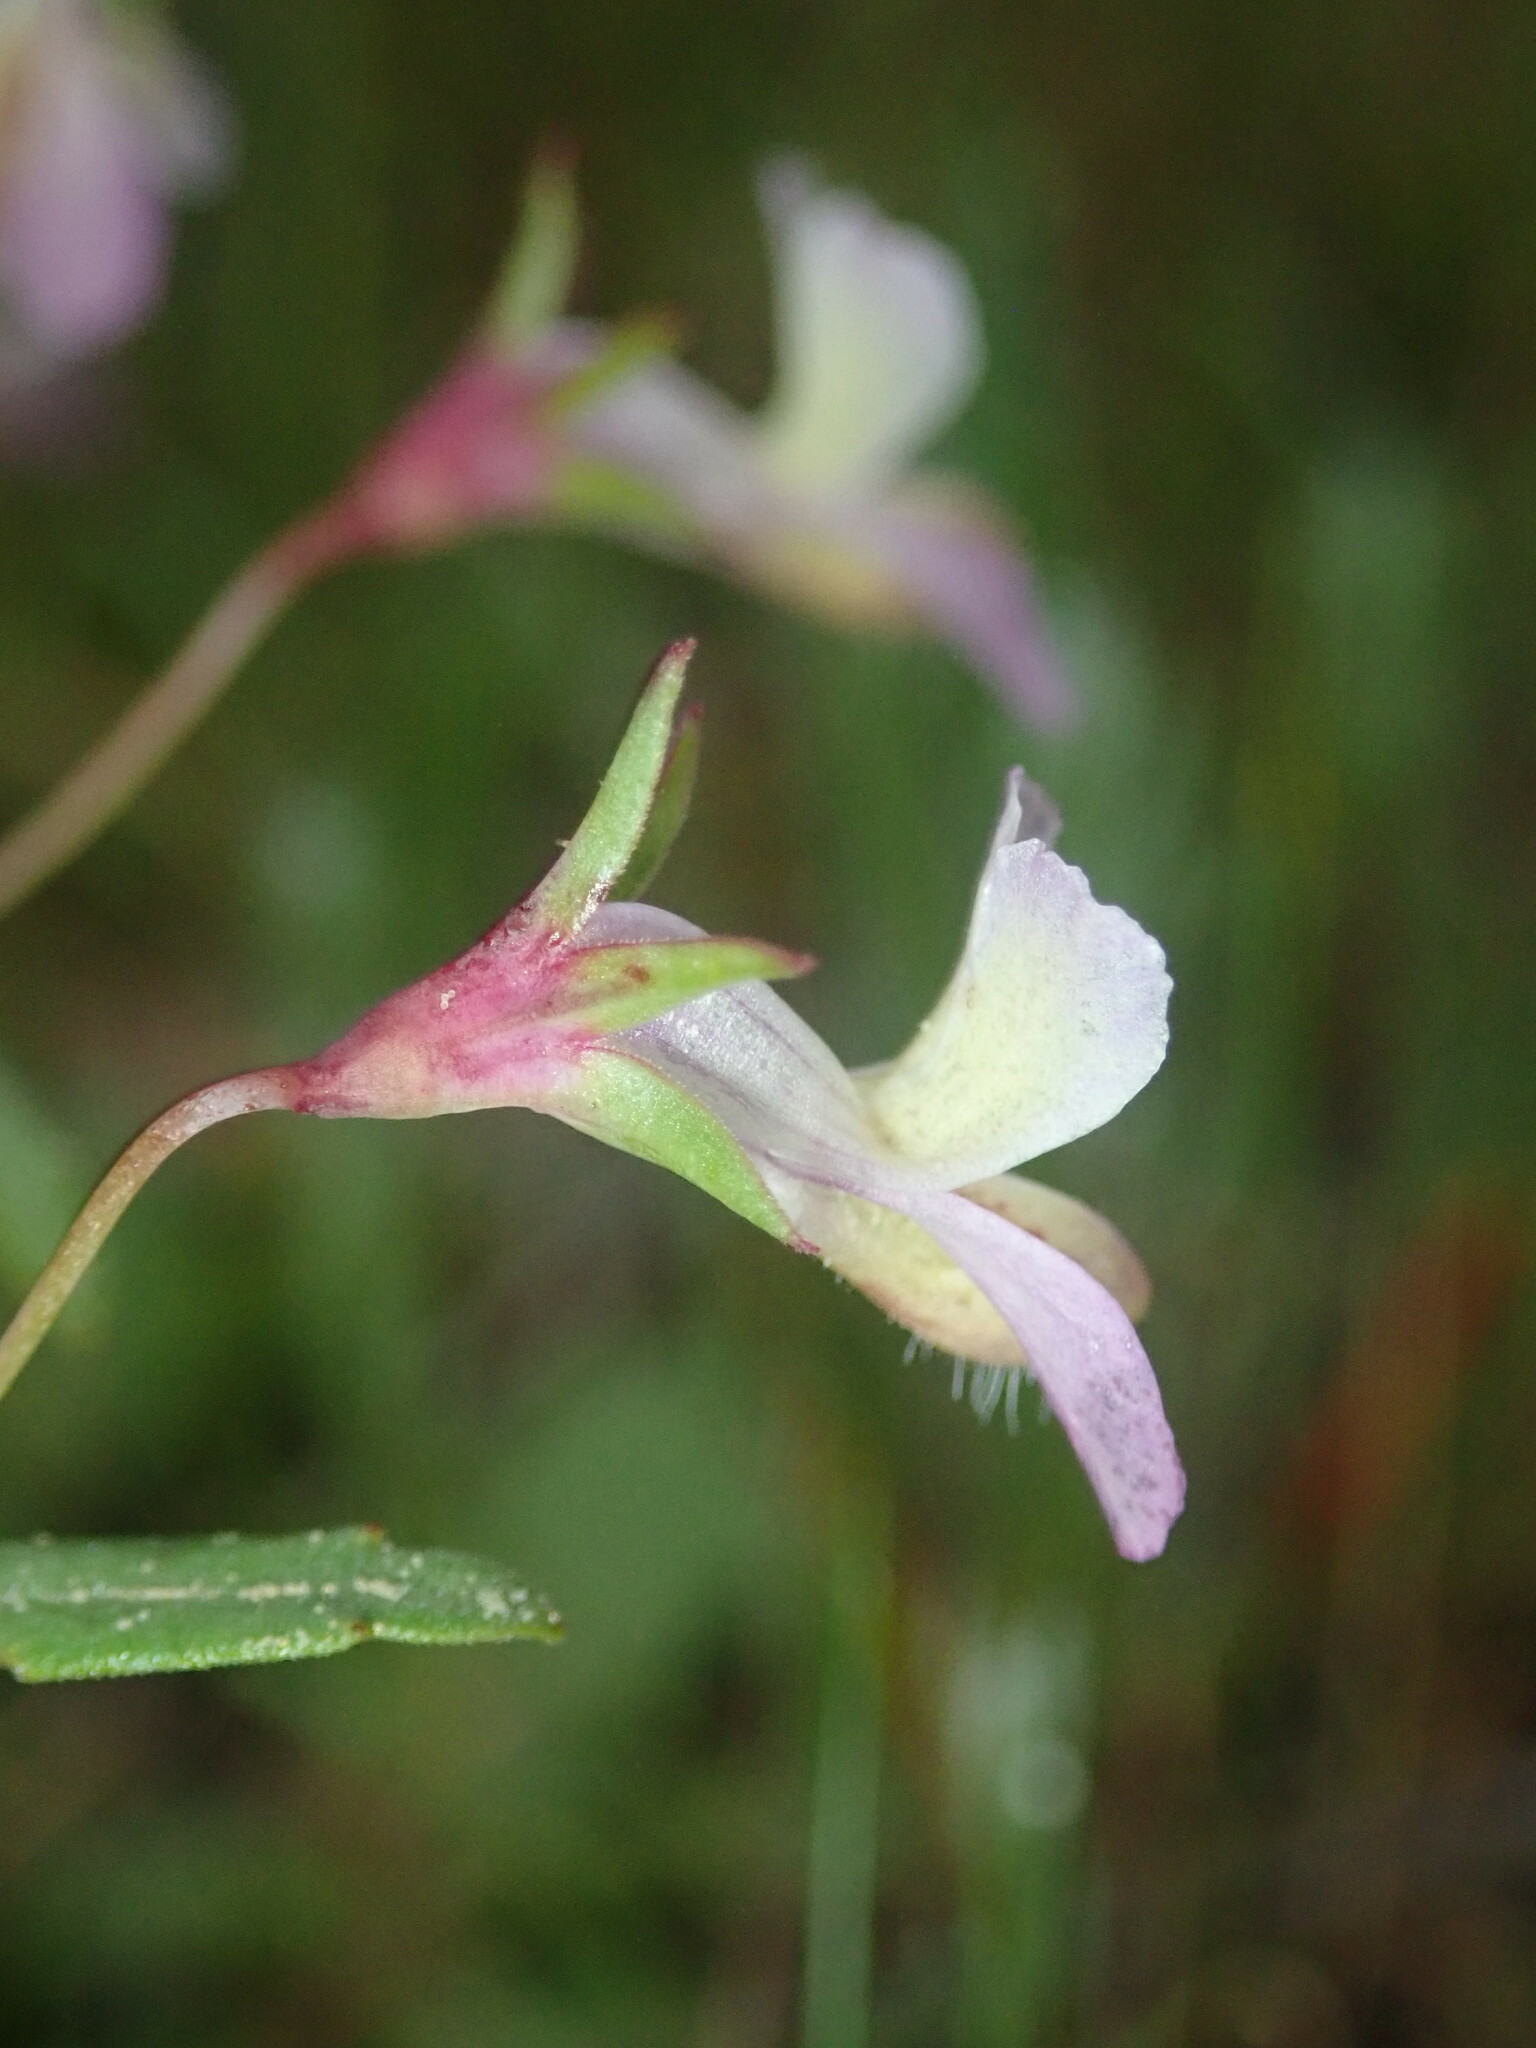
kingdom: Plantae
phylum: Tracheophyta
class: Magnoliopsida
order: Lamiales
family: Plantaginaceae
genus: Collinsia
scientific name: Collinsia sparsiflora
